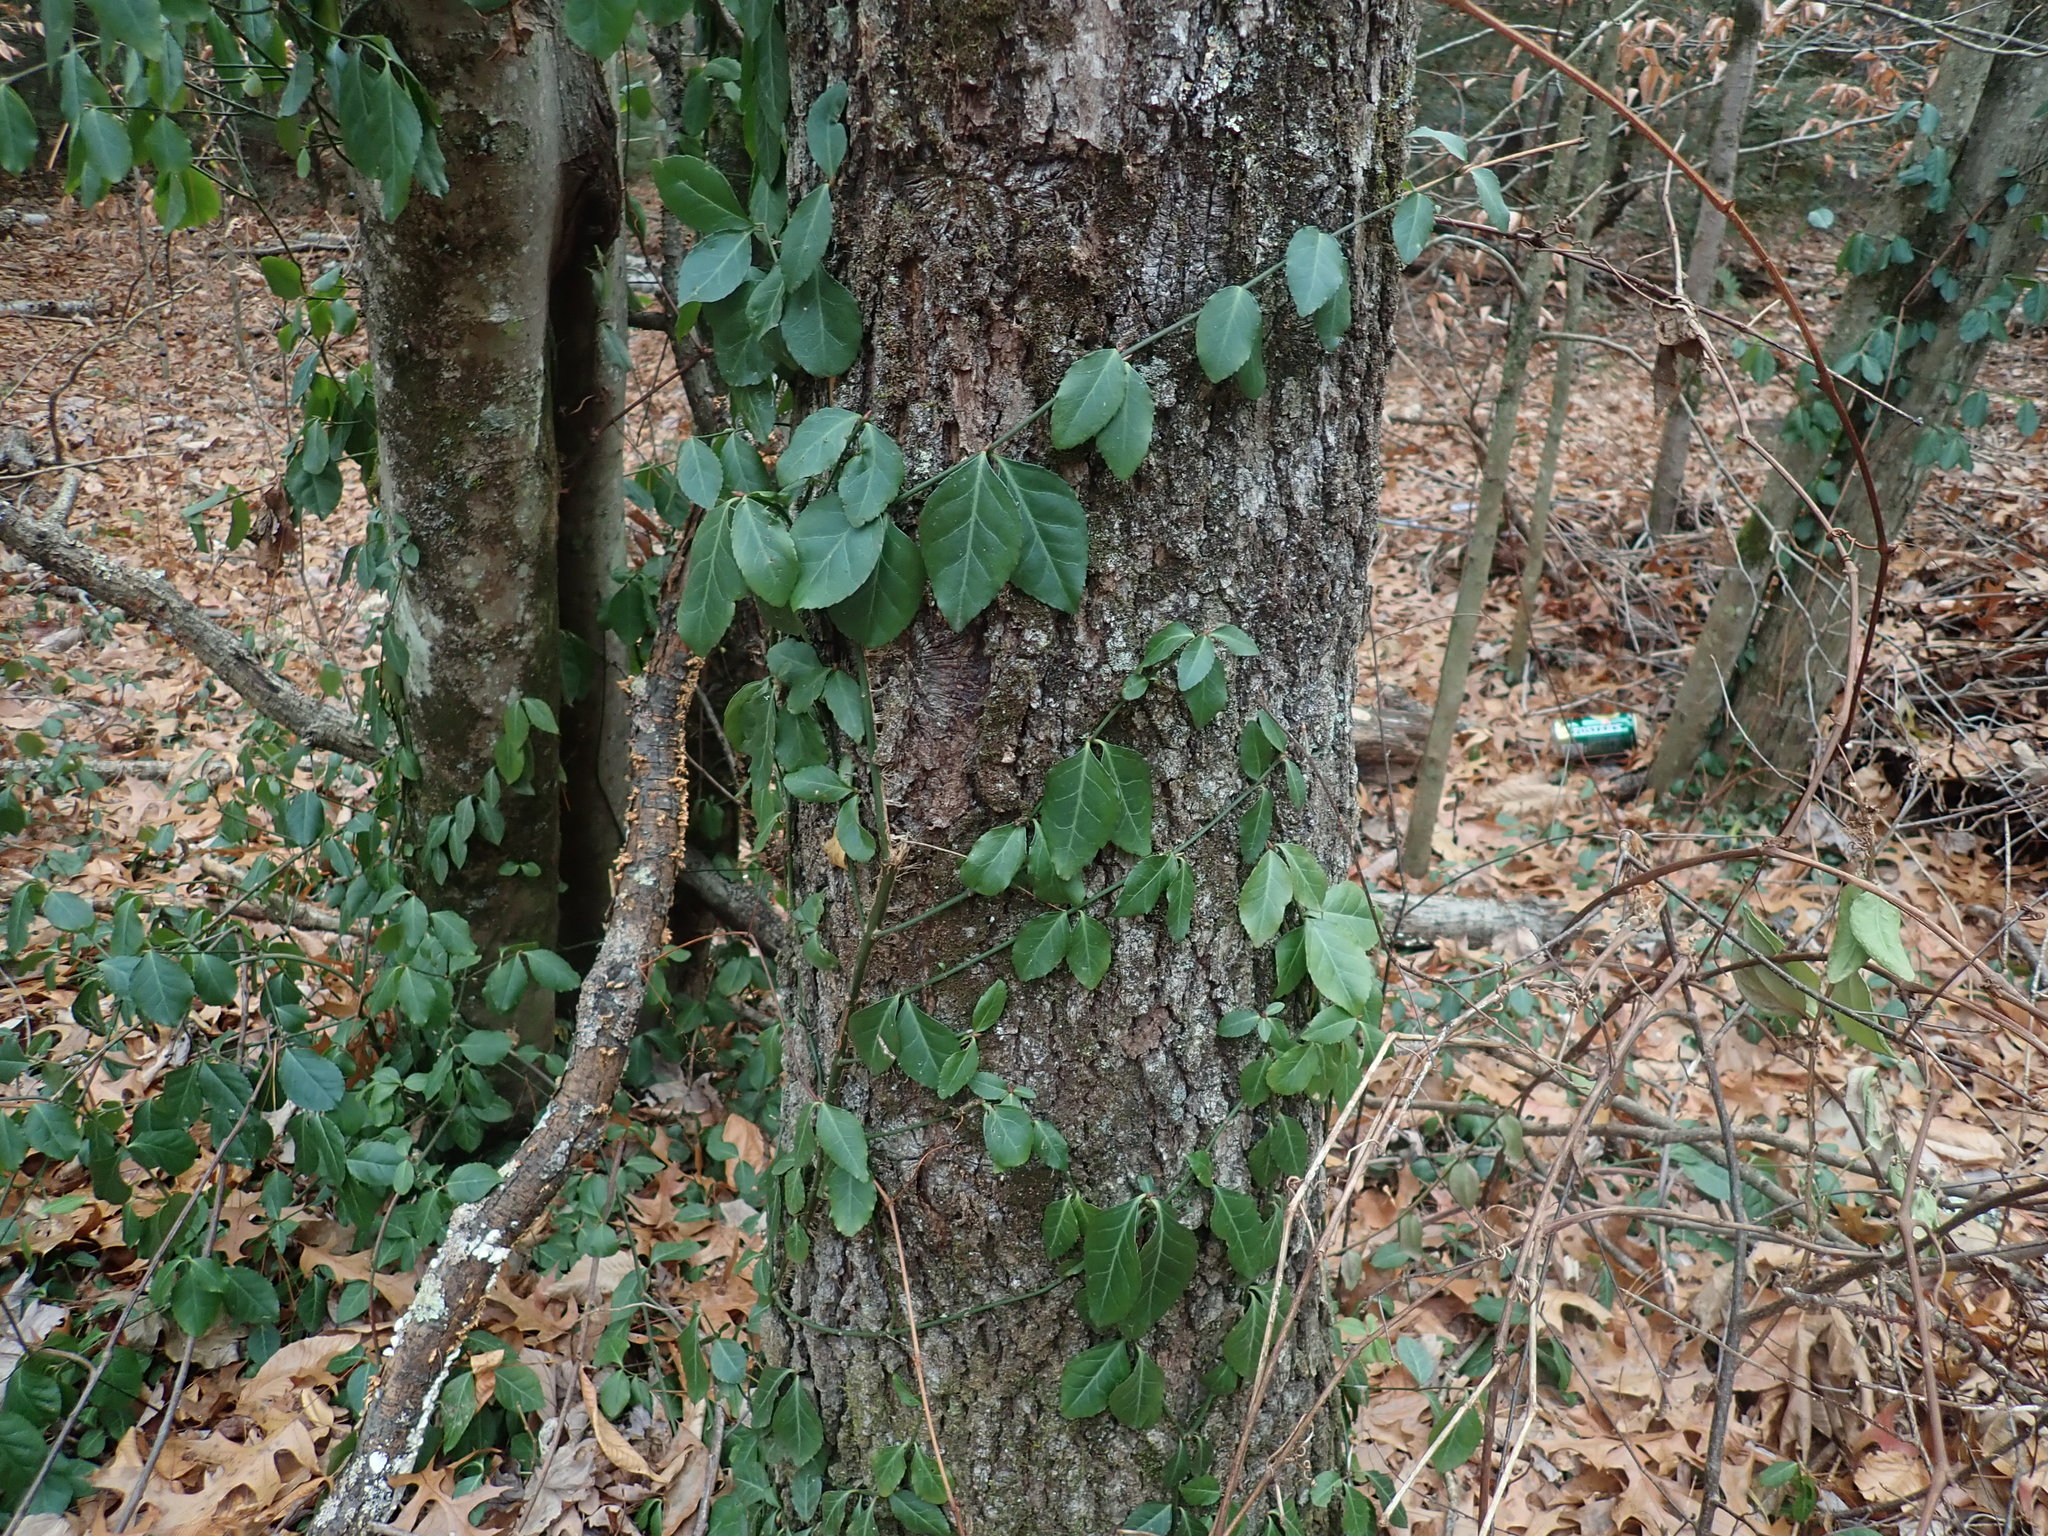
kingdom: Plantae
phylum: Tracheophyta
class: Magnoliopsida
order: Celastrales
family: Celastraceae
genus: Euonymus
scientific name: Euonymus fortunei
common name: Climbing euonymus
